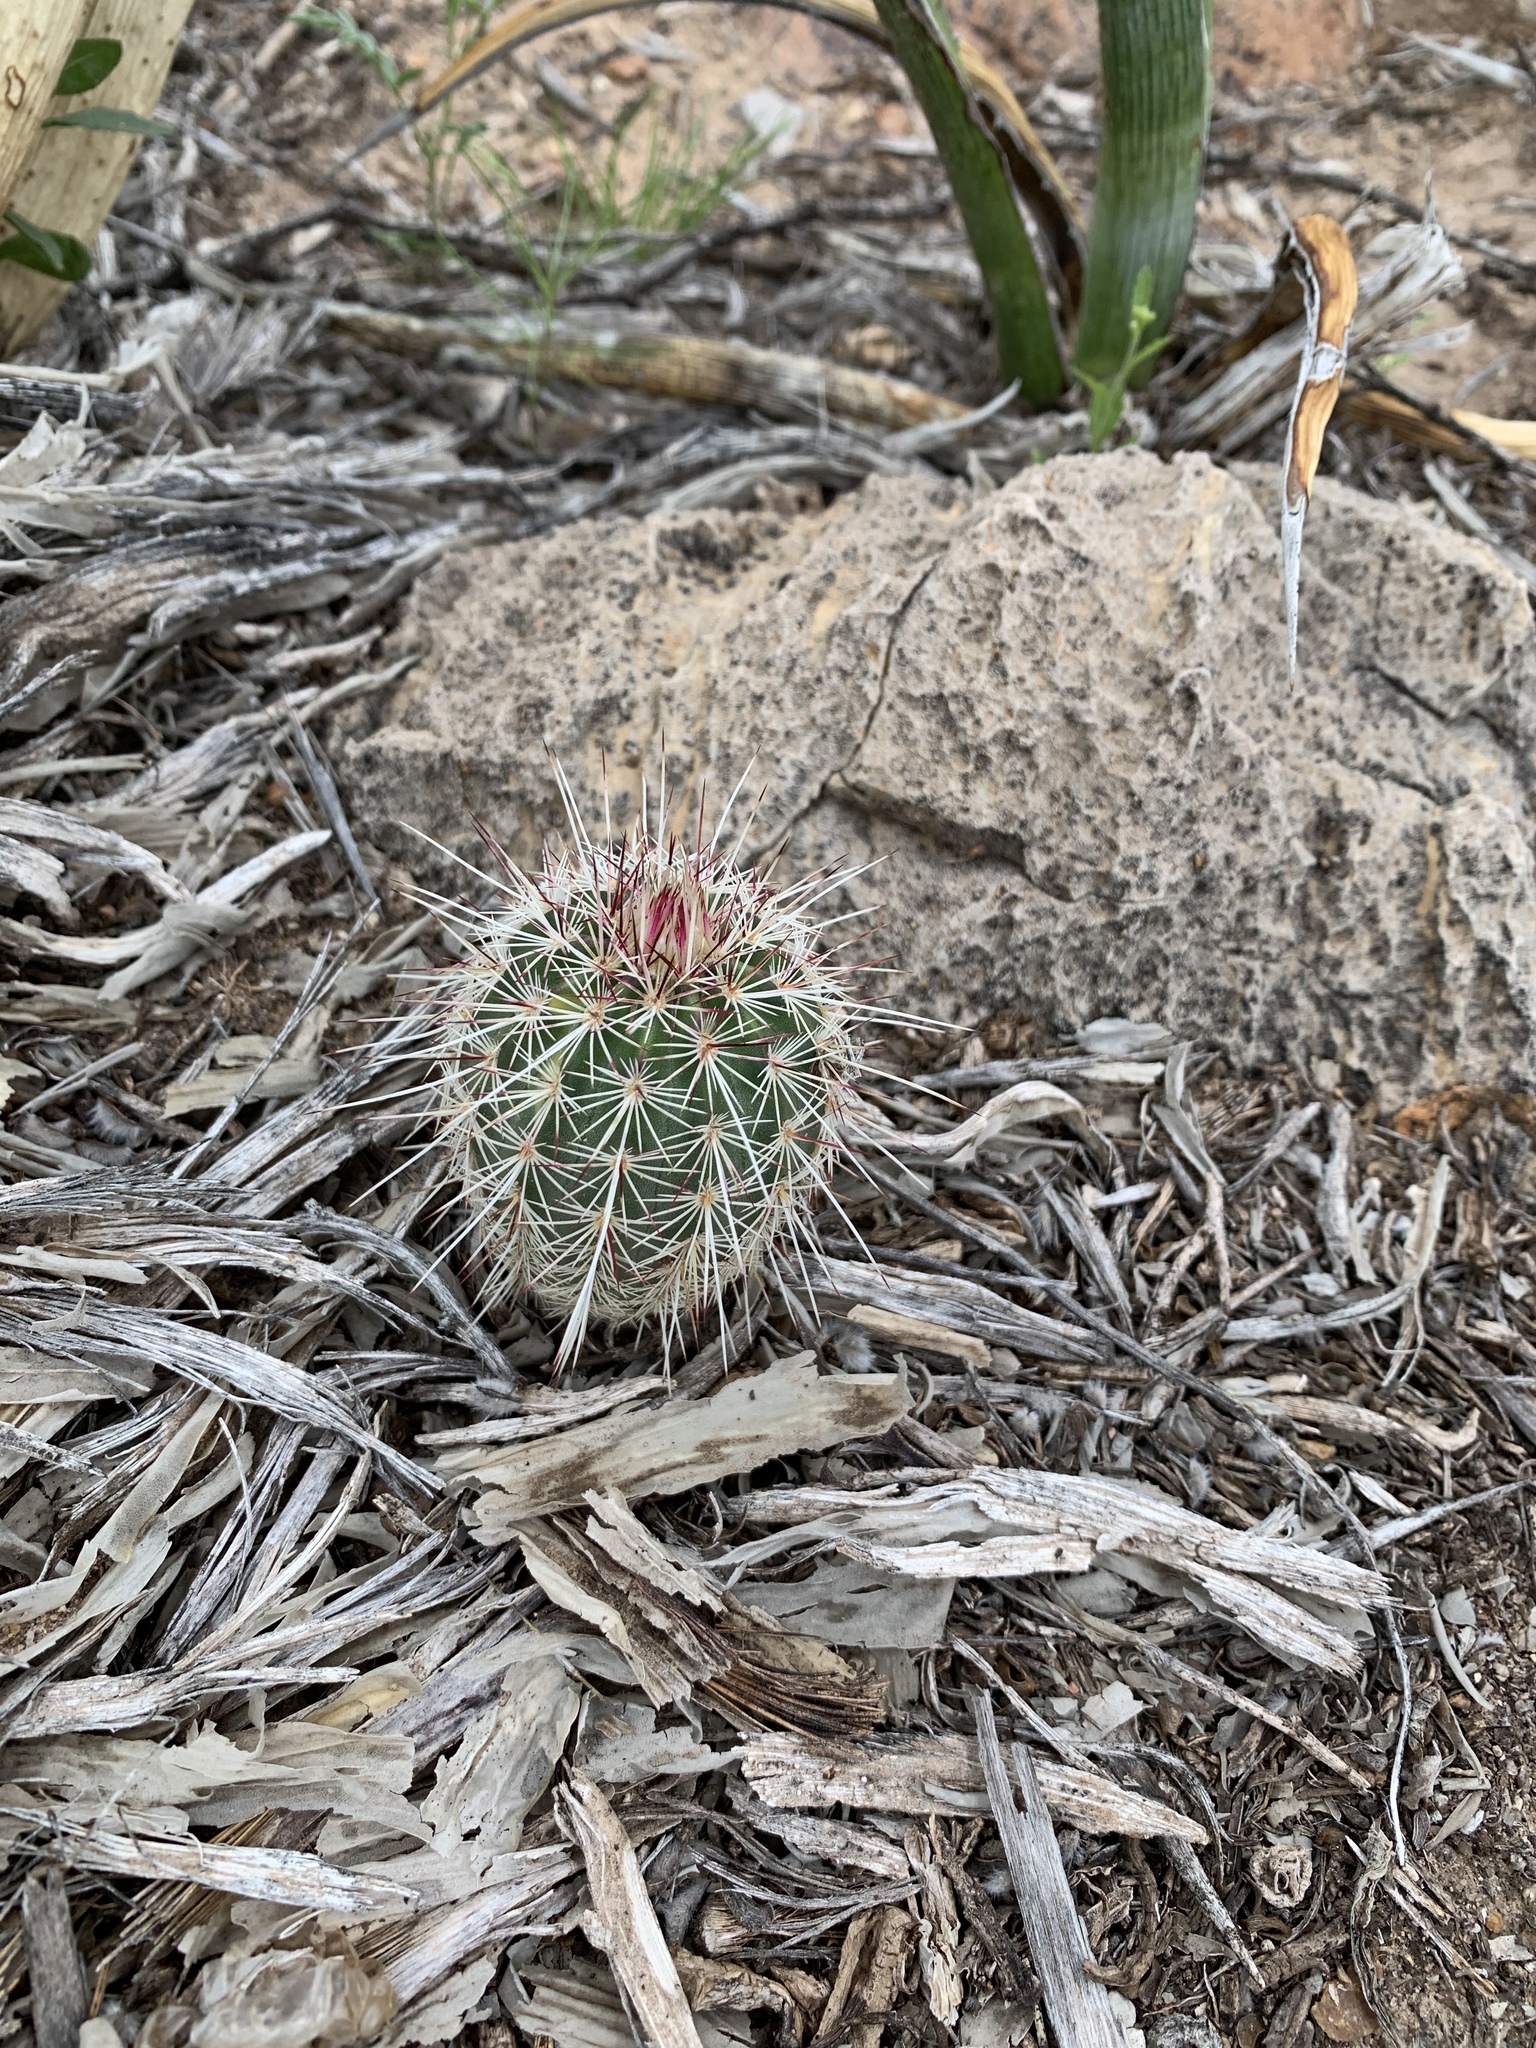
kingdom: Plantae
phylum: Tracheophyta
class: Magnoliopsida
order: Caryophyllales
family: Cactaceae
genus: Echinocereus
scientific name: Echinocereus viridiflorus
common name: Nylon hedgehog cactus
